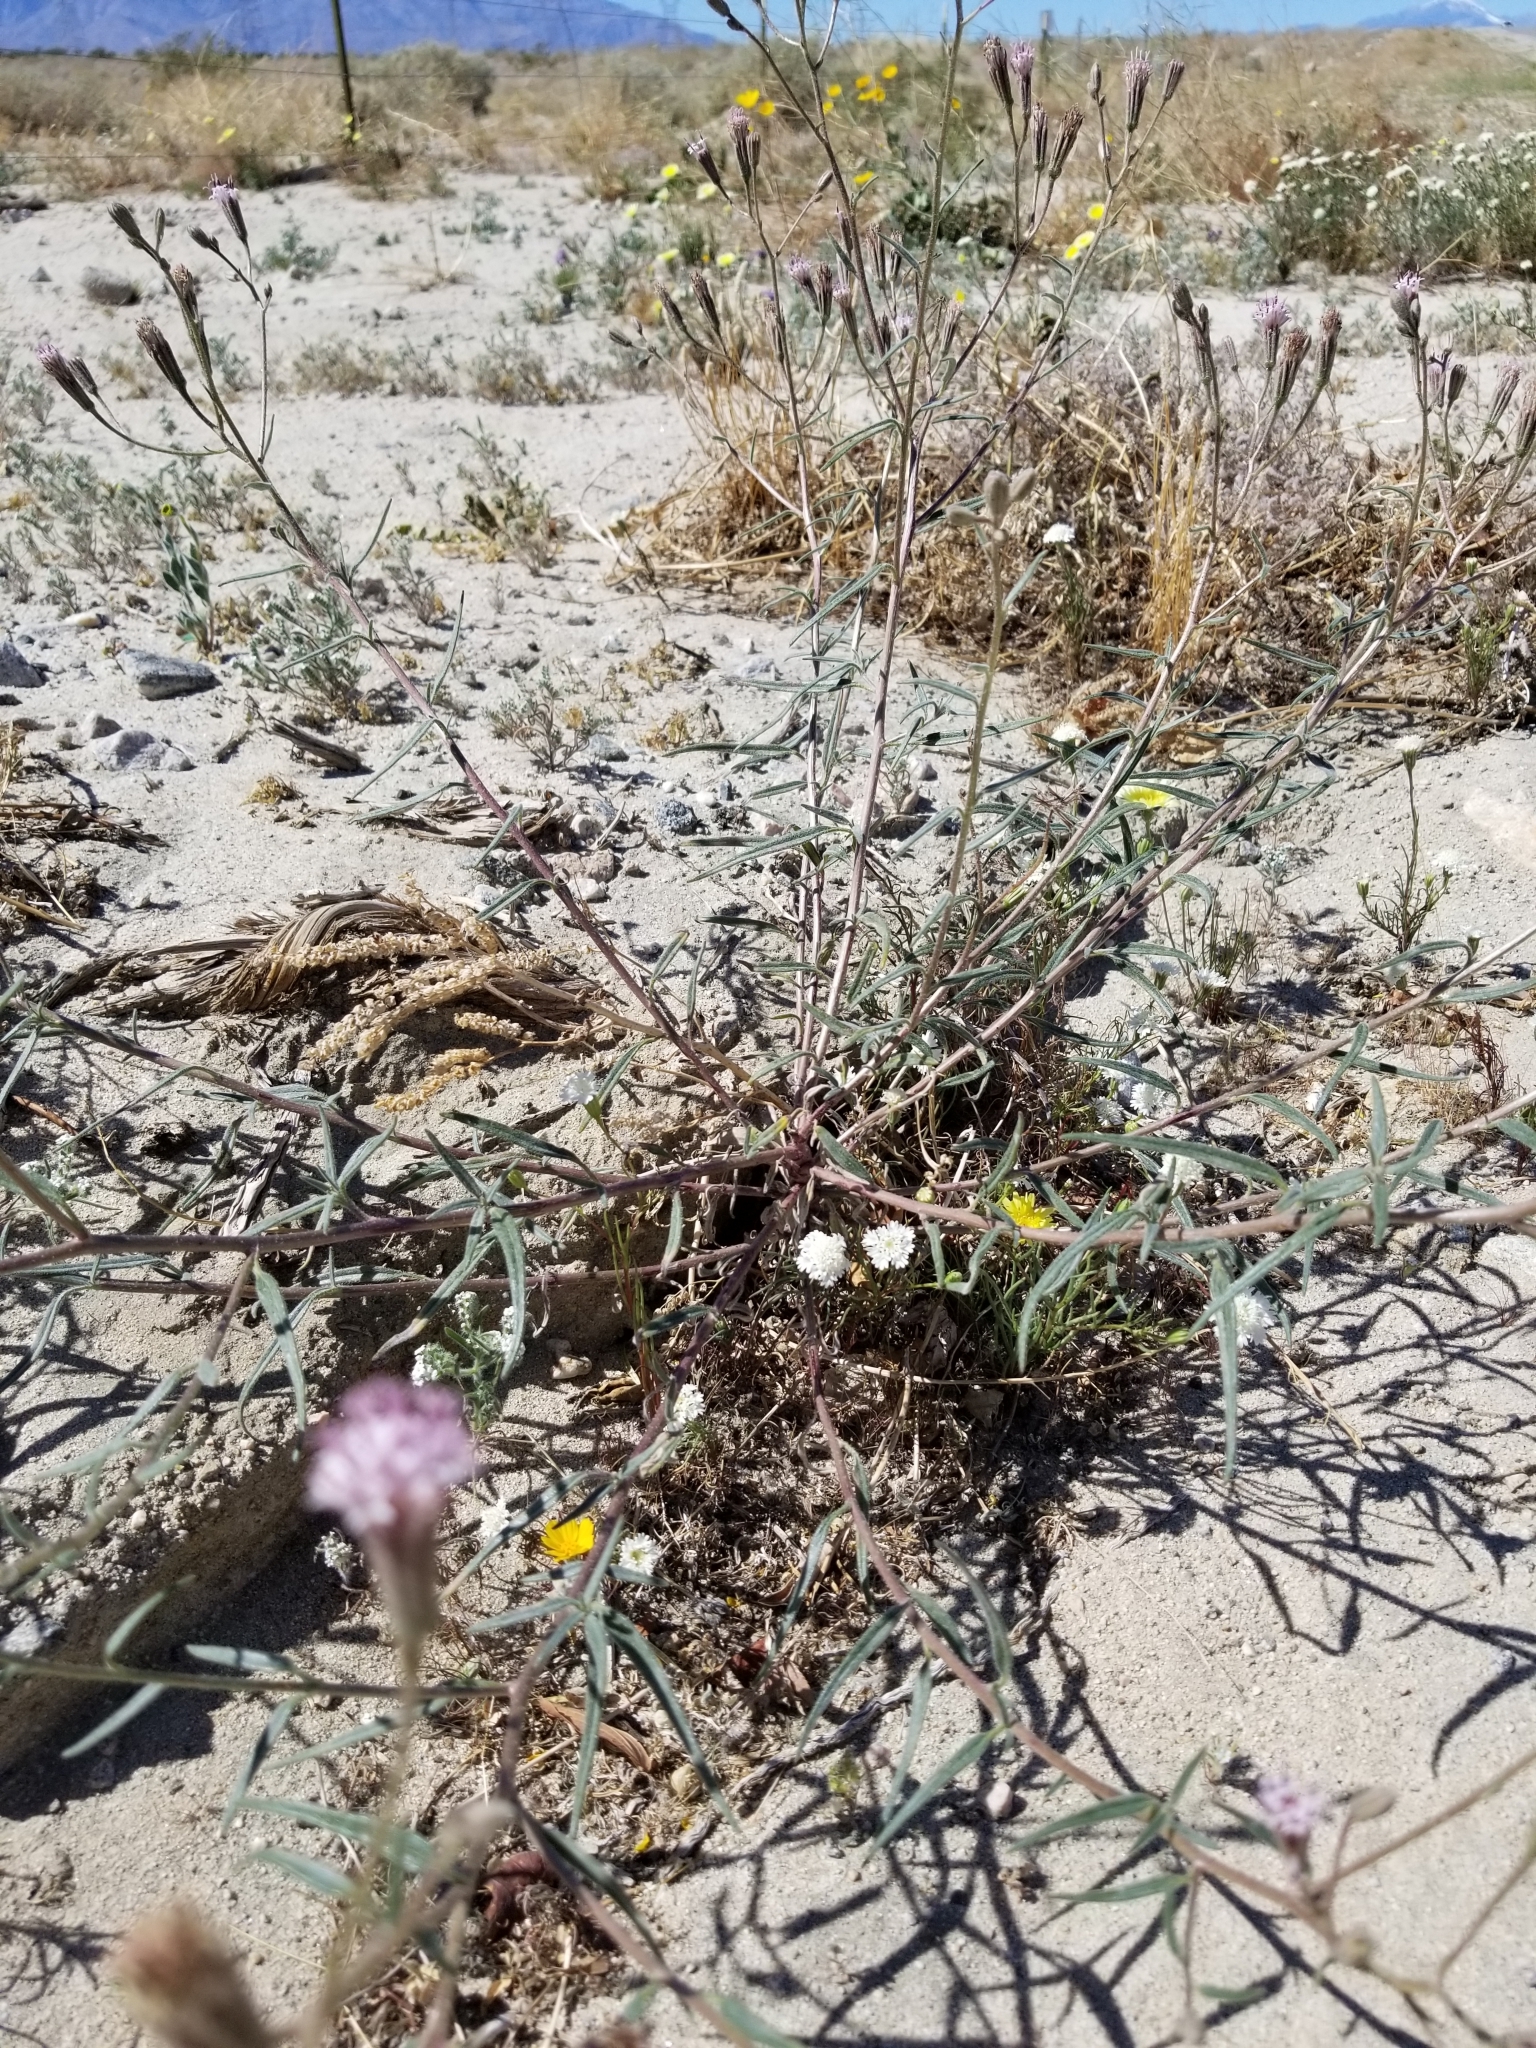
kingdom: Plantae
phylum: Tracheophyta
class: Magnoliopsida
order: Asterales
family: Asteraceae
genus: Palafoxia
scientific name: Palafoxia arida
